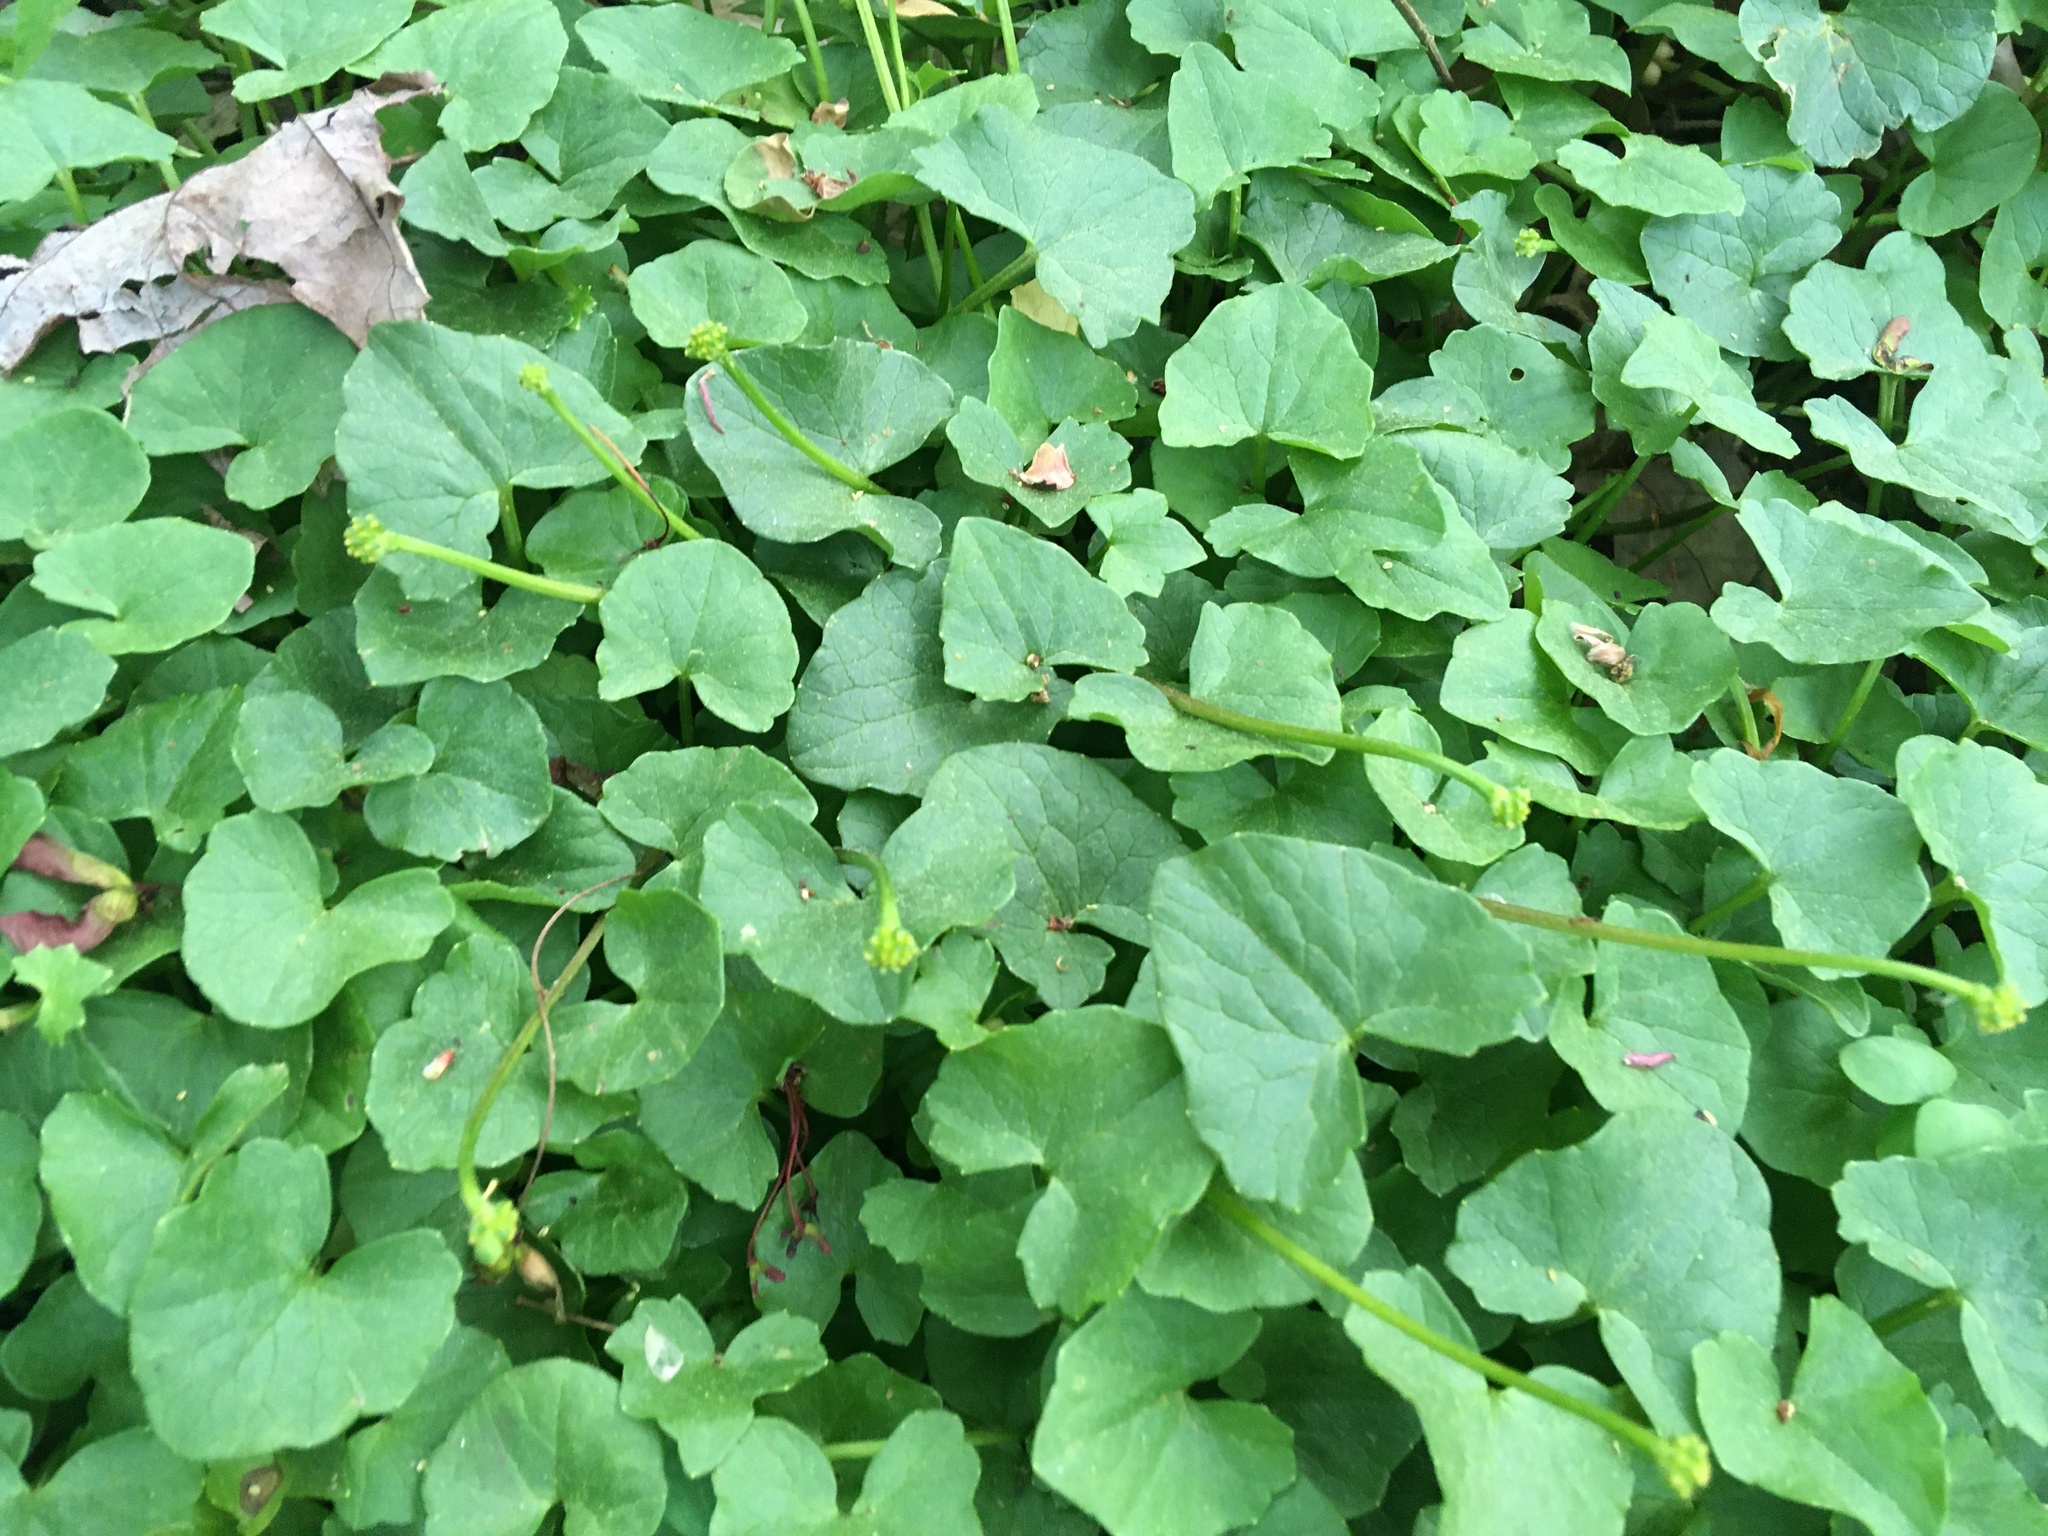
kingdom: Plantae
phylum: Tracheophyta
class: Magnoliopsida
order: Ranunculales
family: Ranunculaceae
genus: Ficaria
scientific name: Ficaria verna
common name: Lesser celandine
